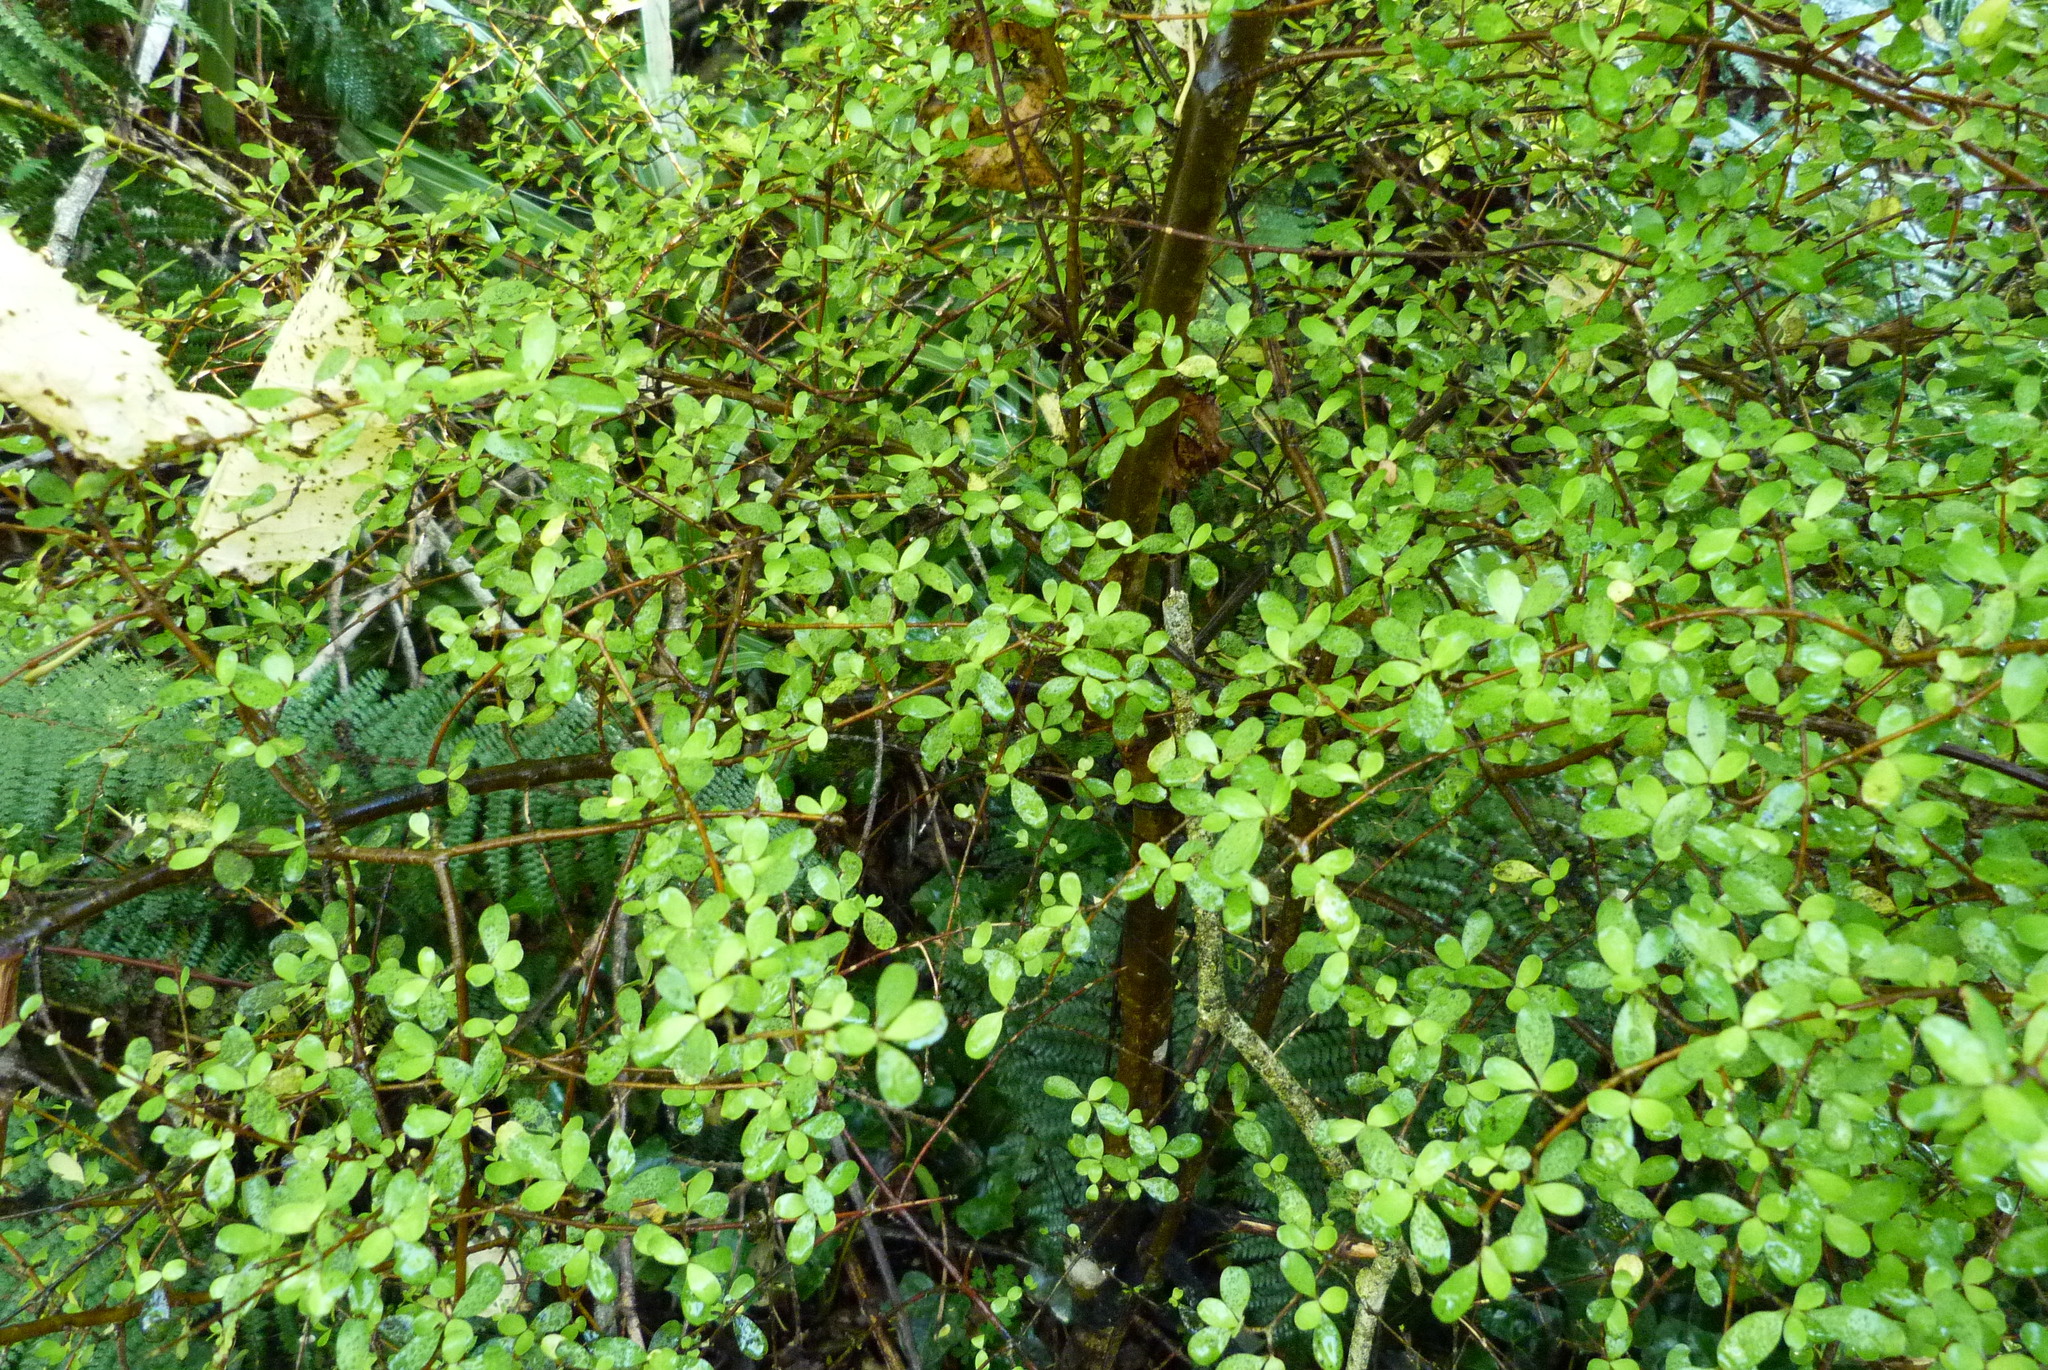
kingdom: Plantae
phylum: Tracheophyta
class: Magnoliopsida
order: Gentianales
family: Rubiaceae
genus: Coprosma
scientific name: Coprosma rigida
